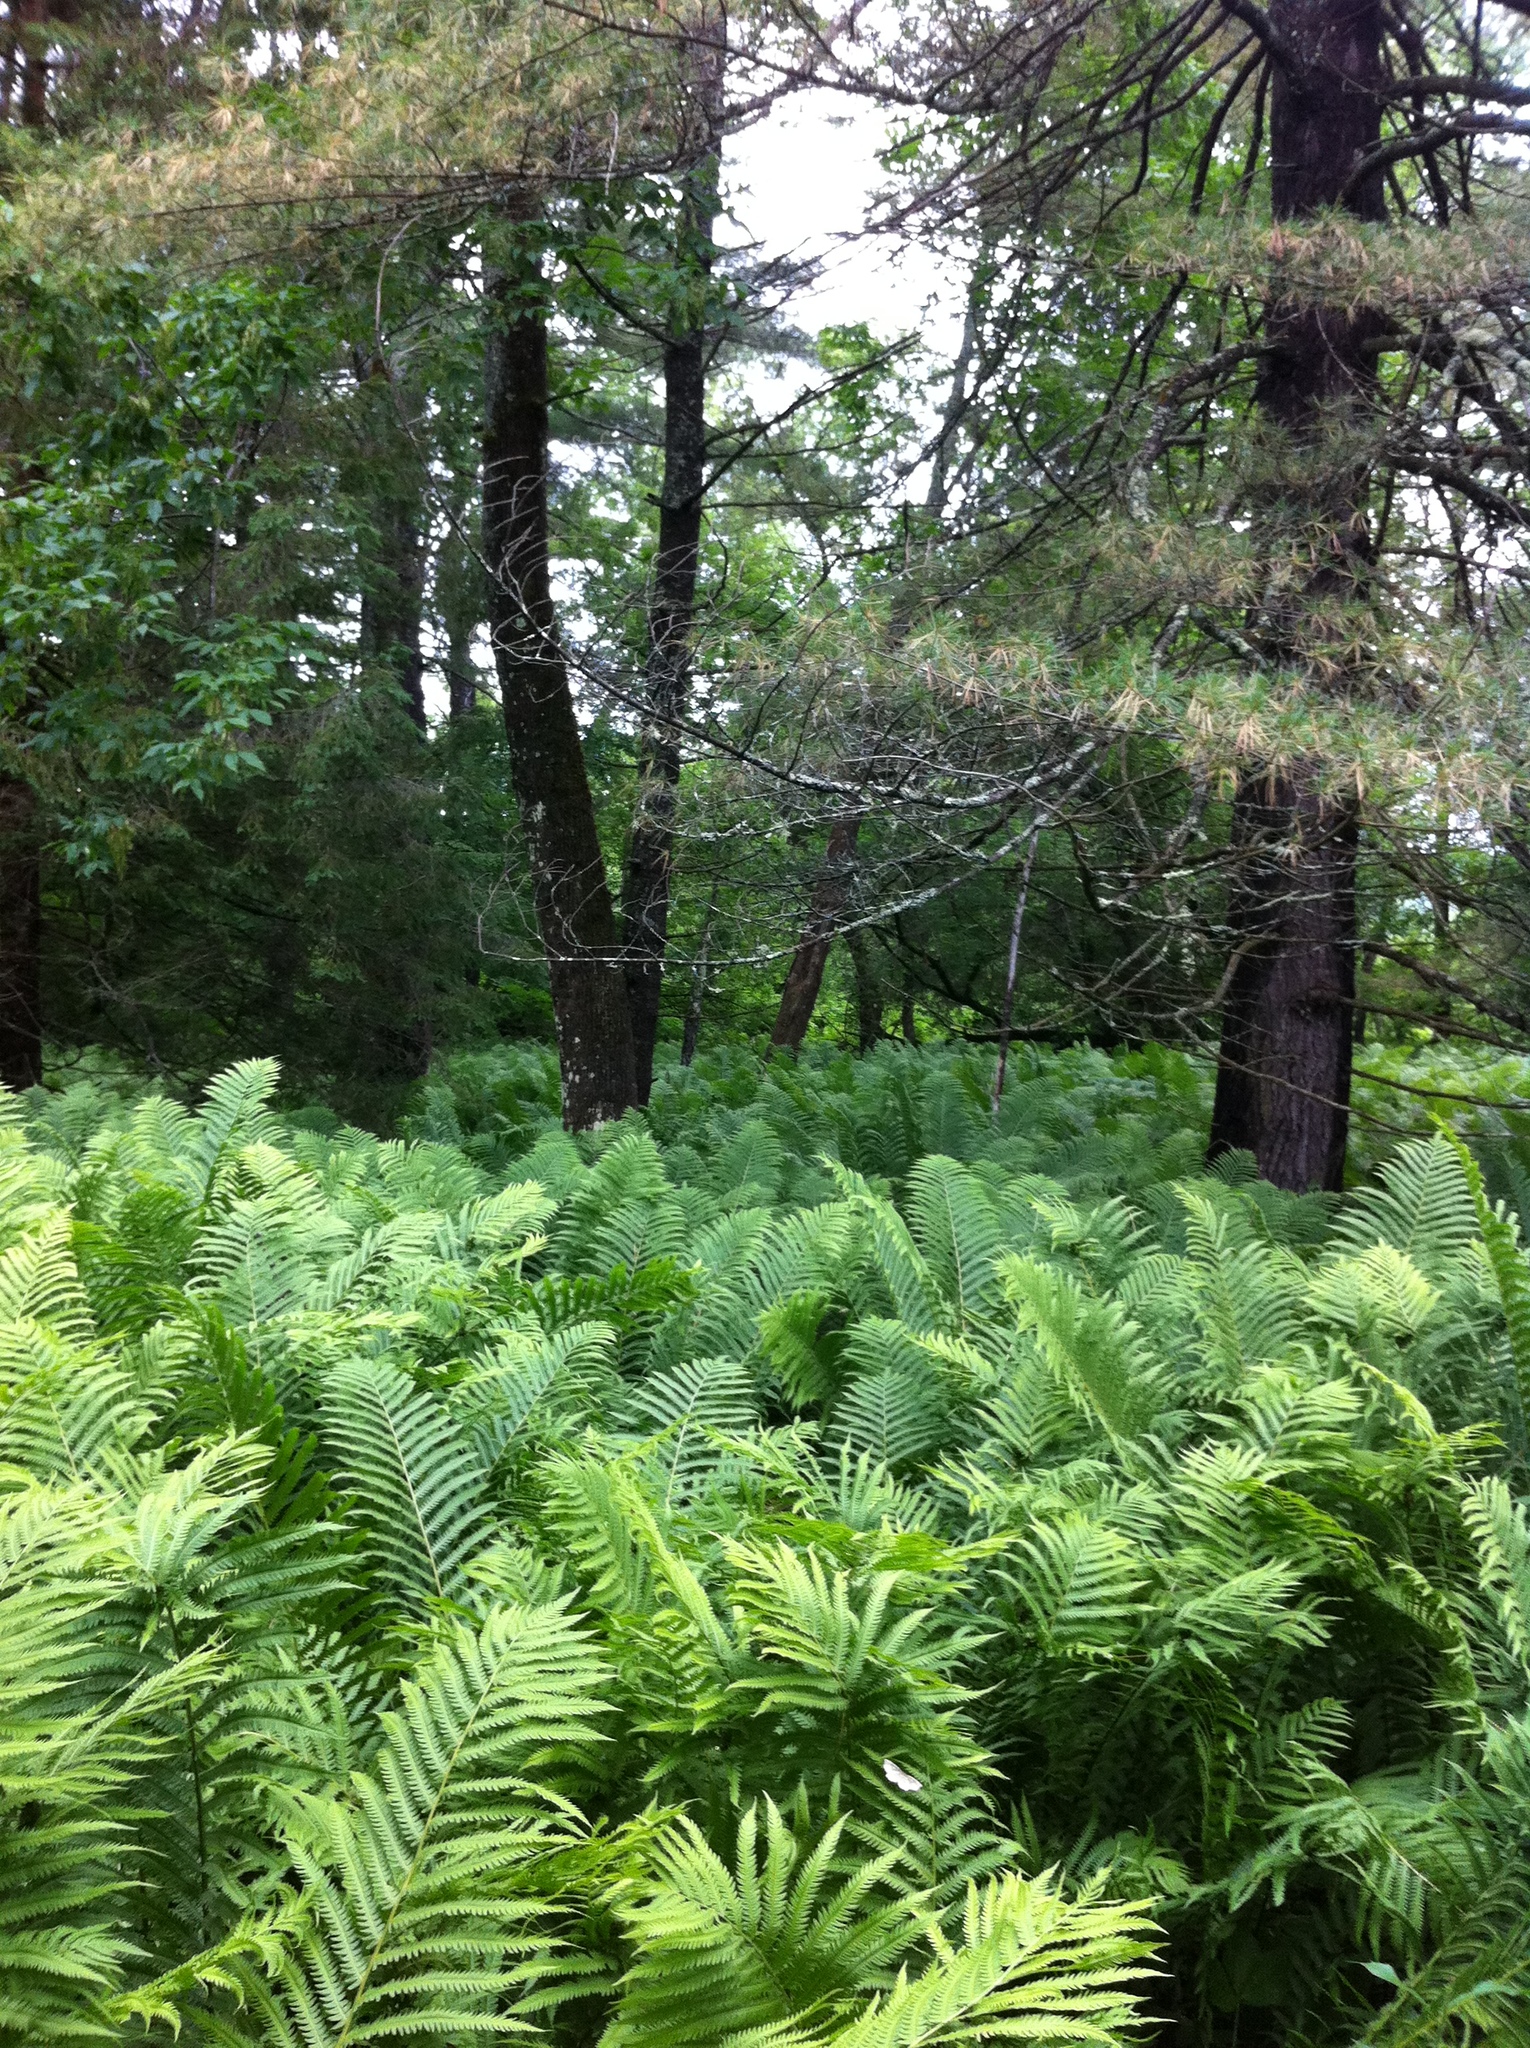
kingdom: Plantae
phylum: Tracheophyta
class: Pinopsida
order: Pinales
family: Pinaceae
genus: Pinus
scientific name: Pinus strobus
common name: Weymouth pine
